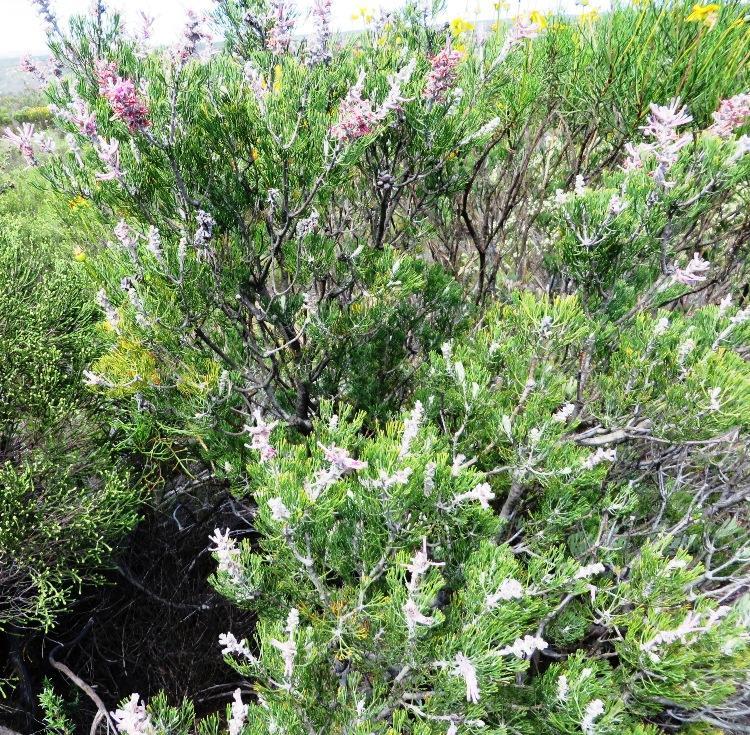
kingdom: Plantae
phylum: Tracheophyta
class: Magnoliopsida
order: Proteales
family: Proteaceae
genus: Paranomus
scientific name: Paranomus bracteolaris
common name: Bokkeveld tree sceptre
